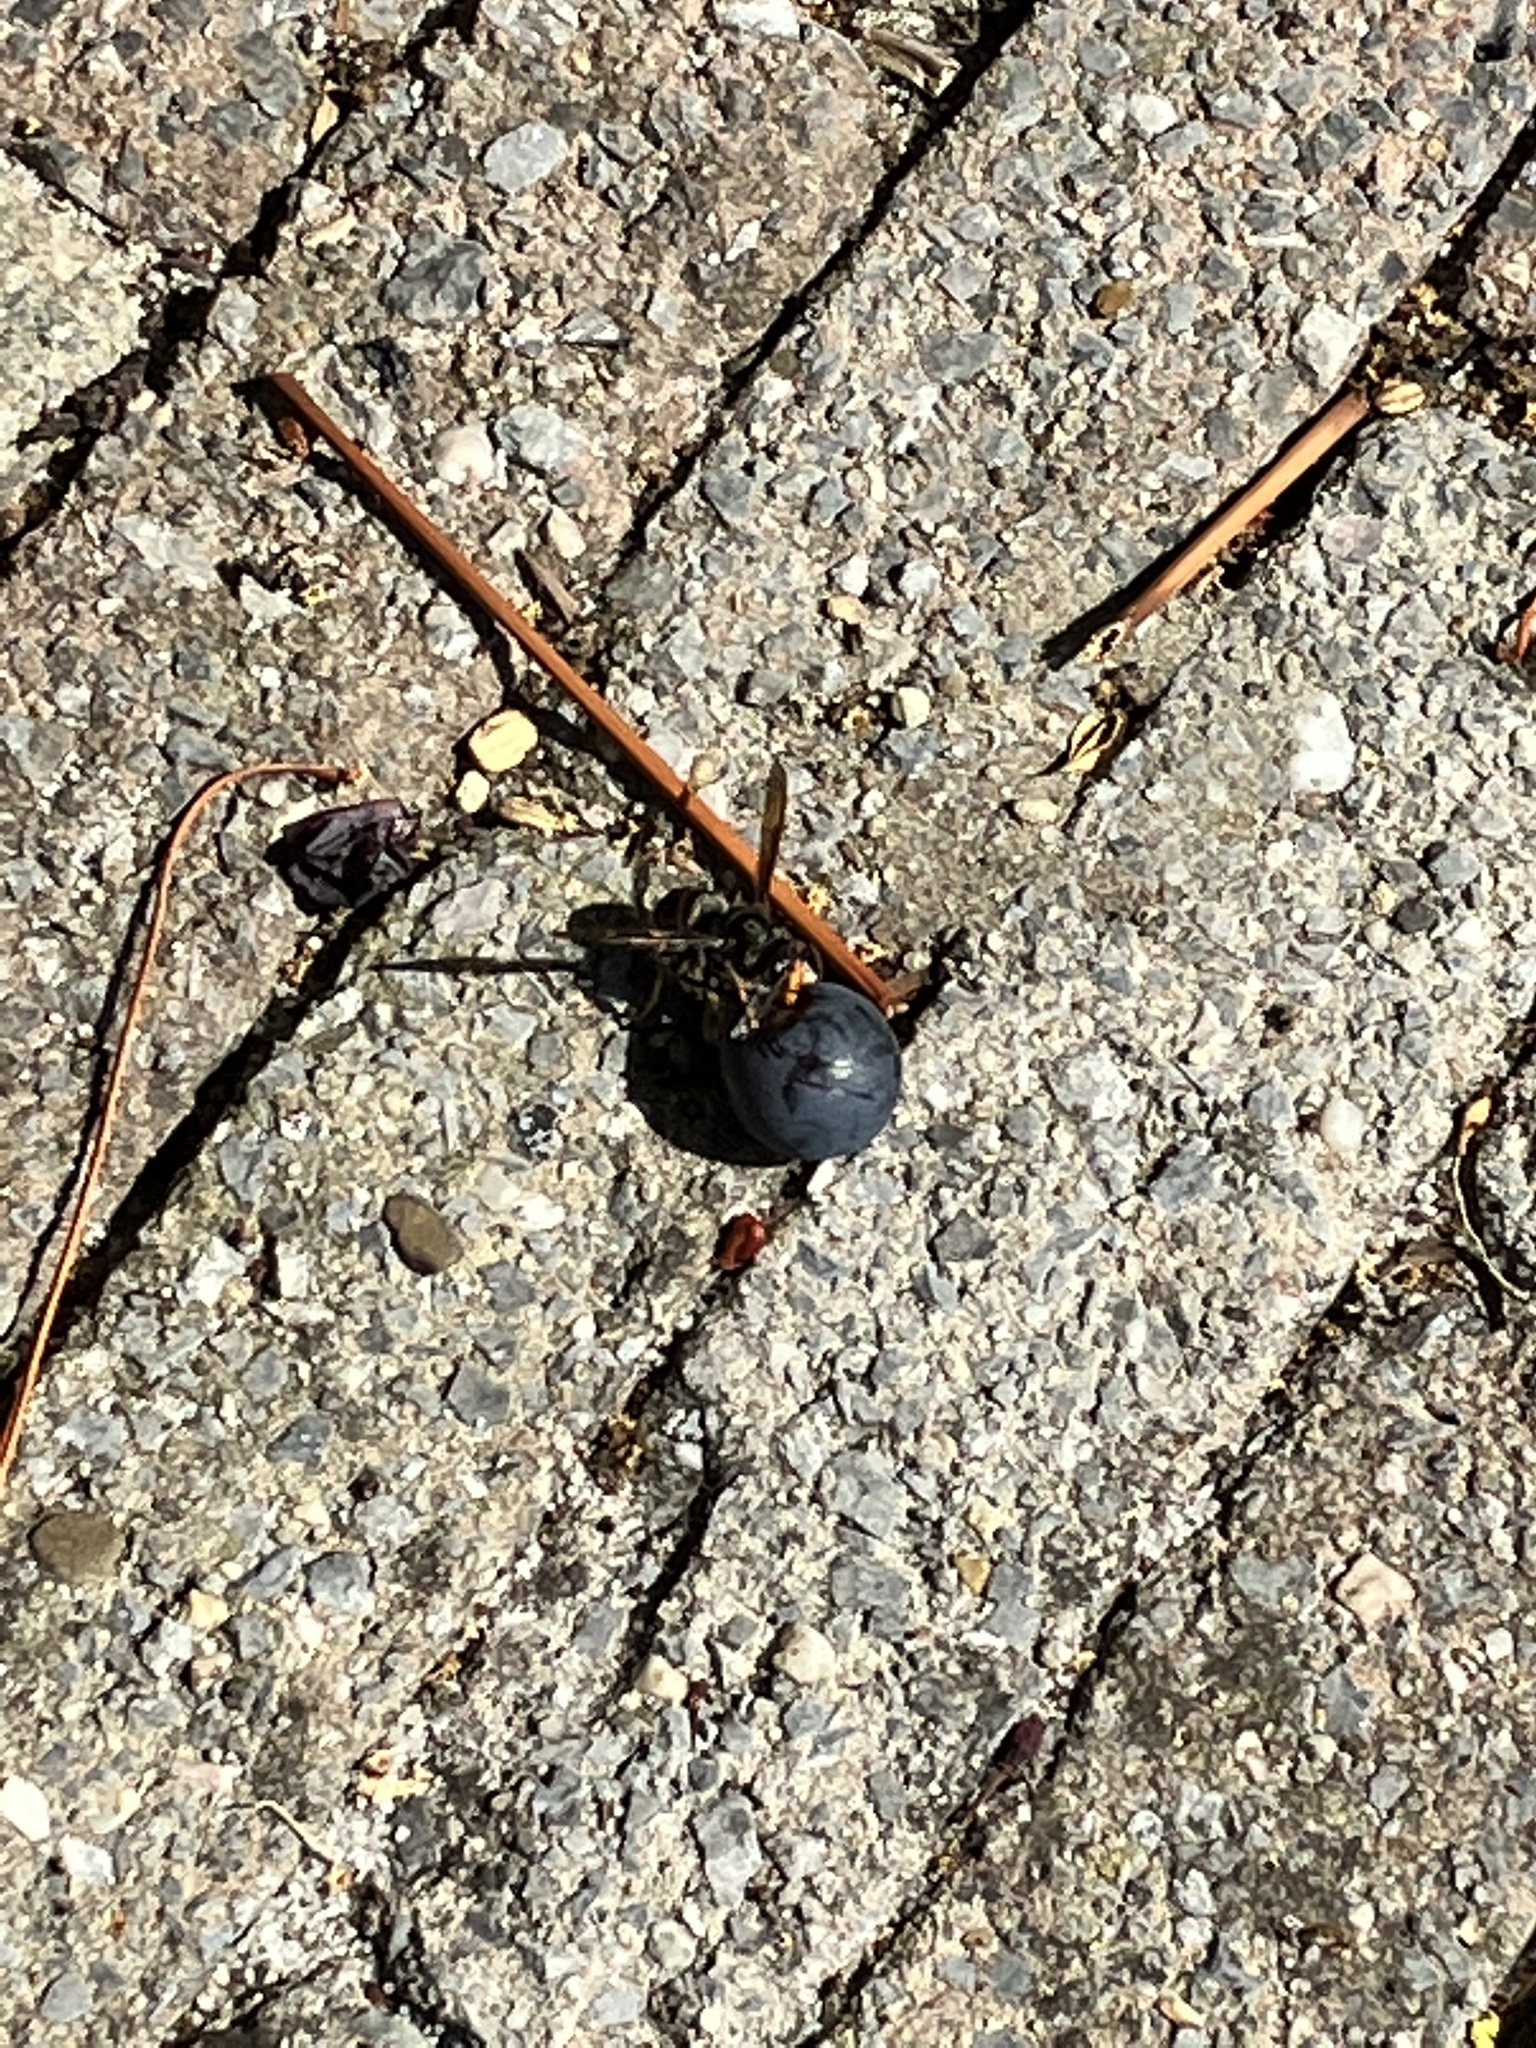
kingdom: Animalia
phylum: Arthropoda
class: Insecta
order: Hymenoptera
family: Vespidae
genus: Vespa
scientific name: Vespa velutina
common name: Asian hornet
